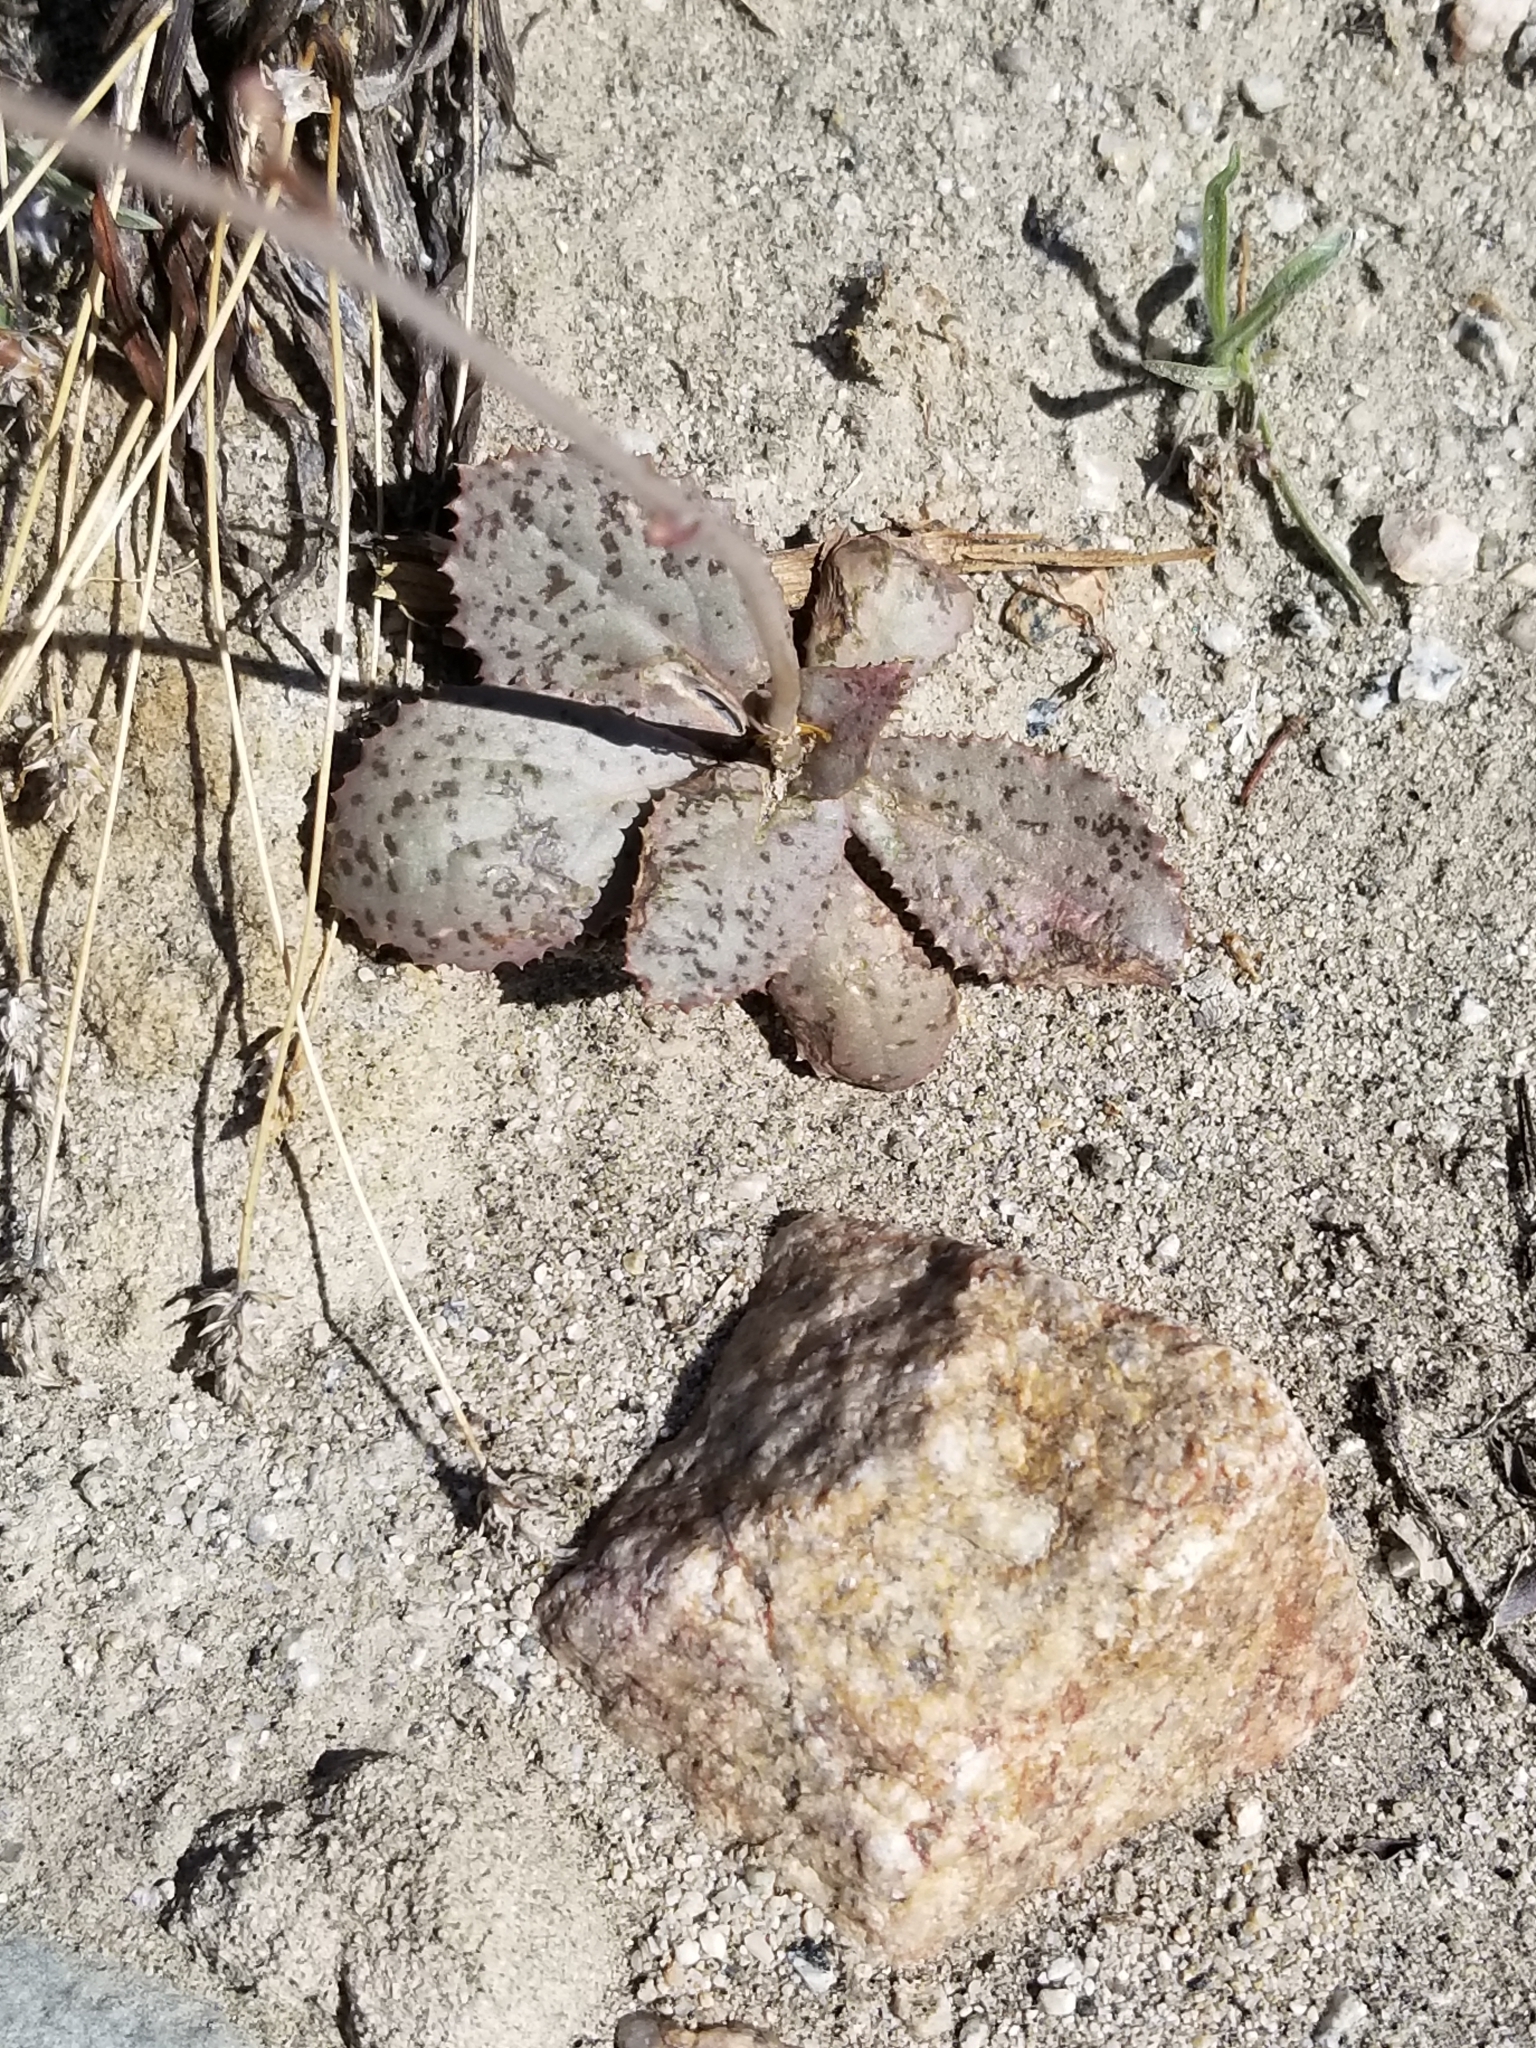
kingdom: Plantae
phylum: Tracheophyta
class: Magnoliopsida
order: Asterales
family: Asteraceae
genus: Atrichoseris
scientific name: Atrichoseris platyphylla
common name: Tobaccoweed
